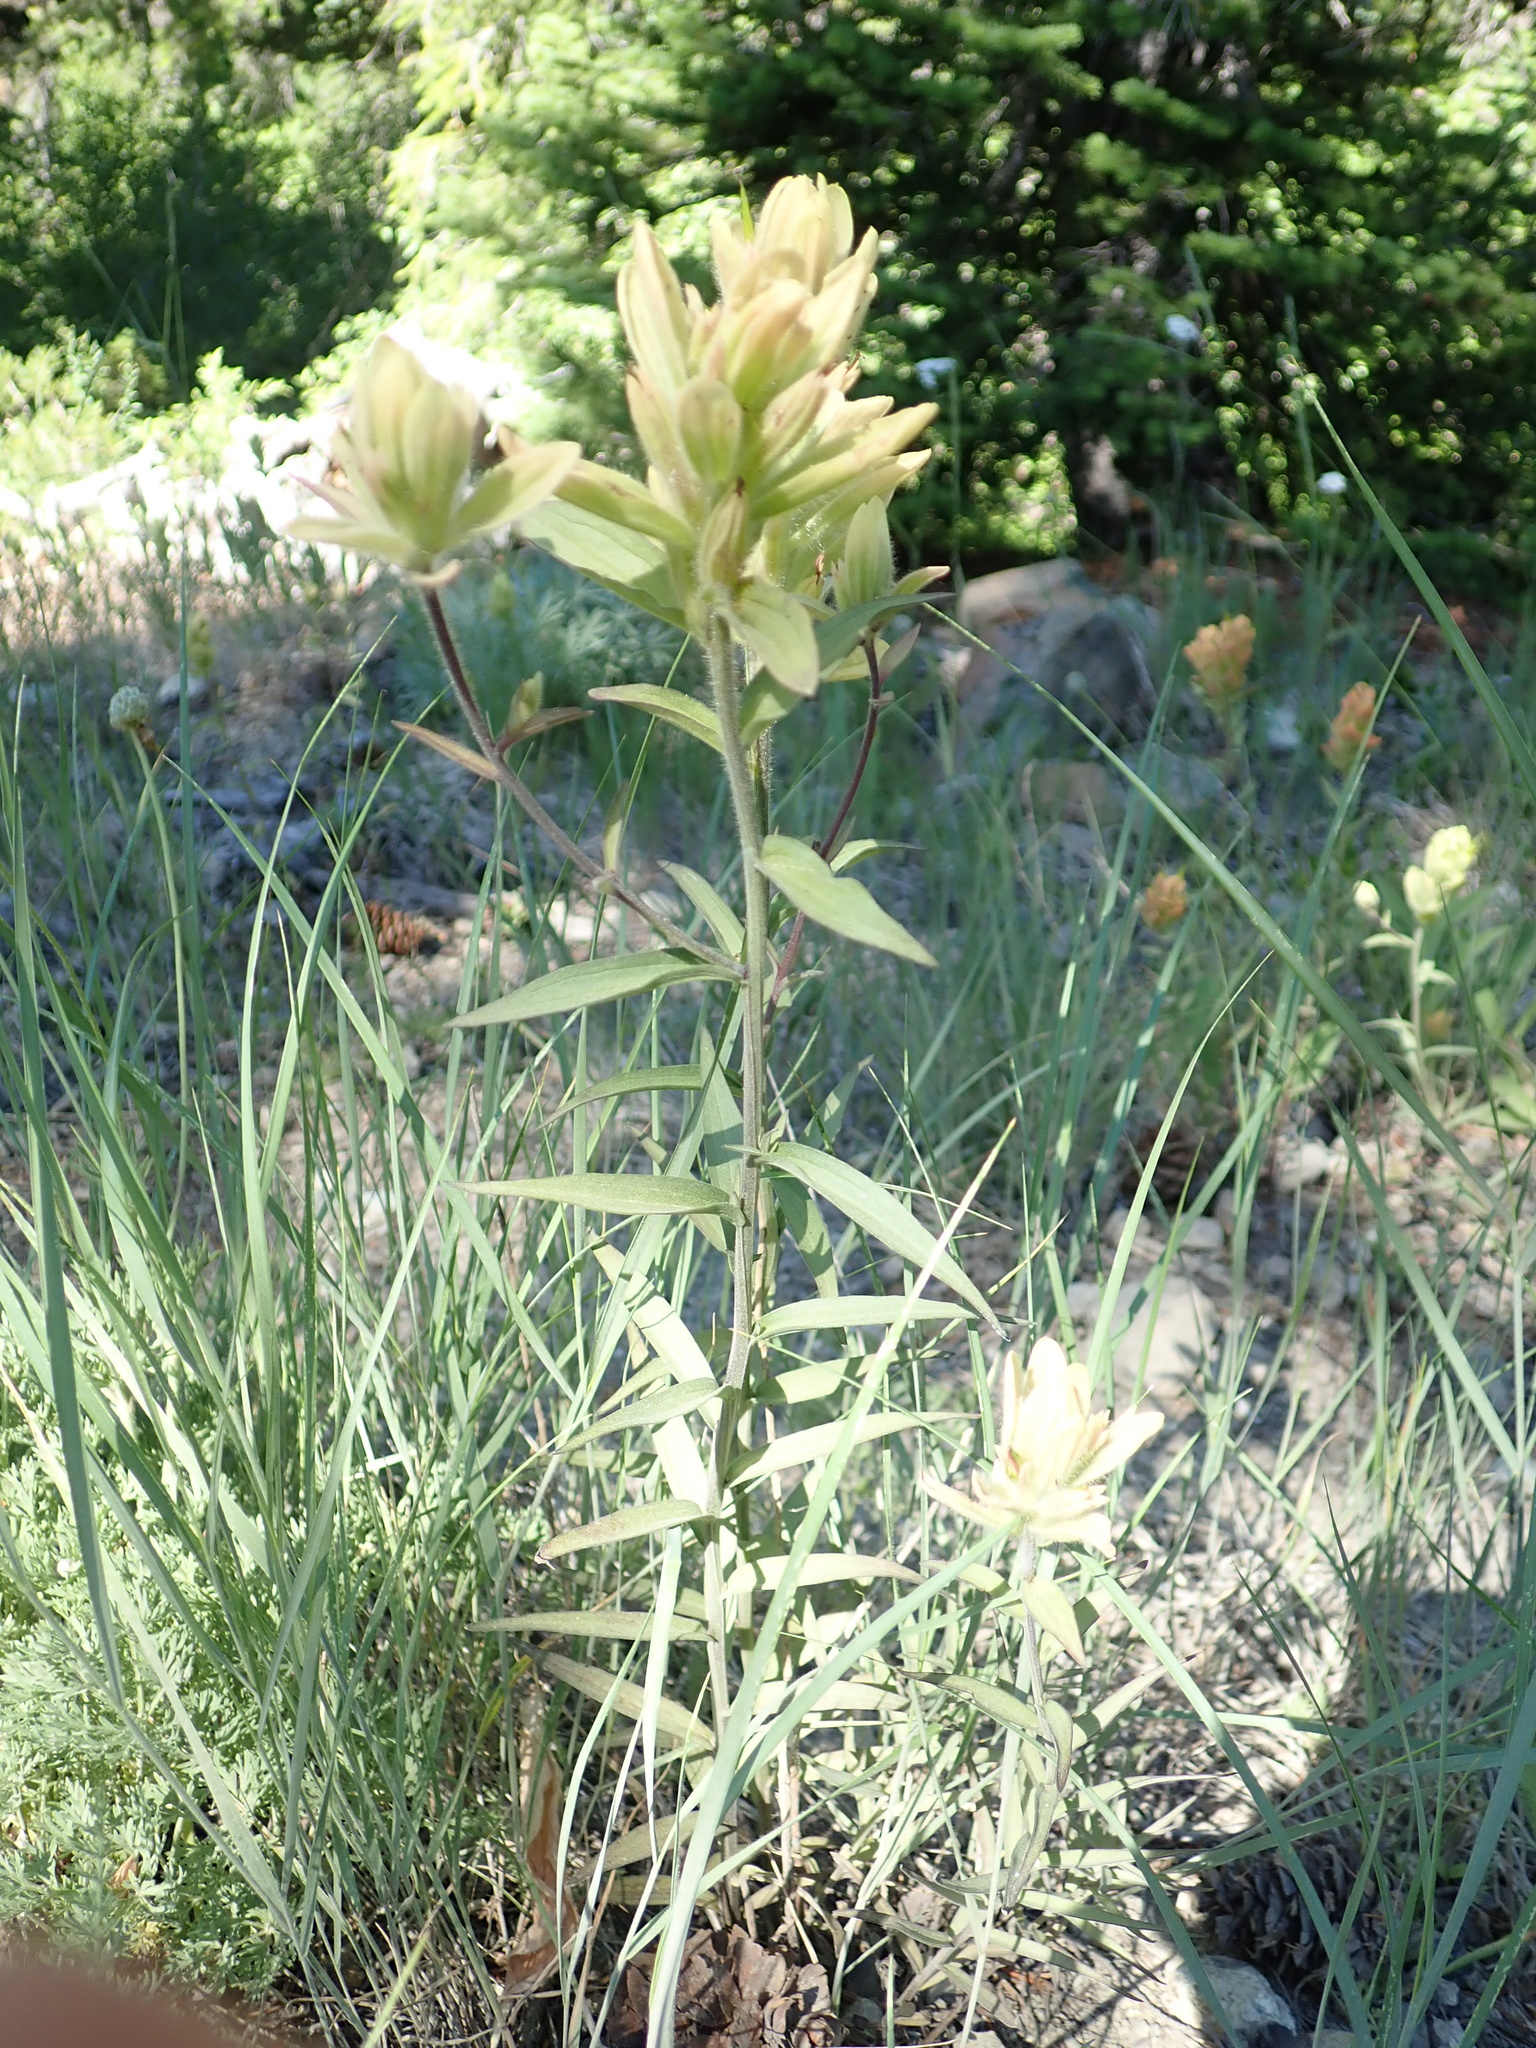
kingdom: Plantae
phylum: Tracheophyta
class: Magnoliopsida
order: Lamiales
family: Orobanchaceae
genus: Castilleja
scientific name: Castilleja elmeri
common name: Elmer's paintbrush
